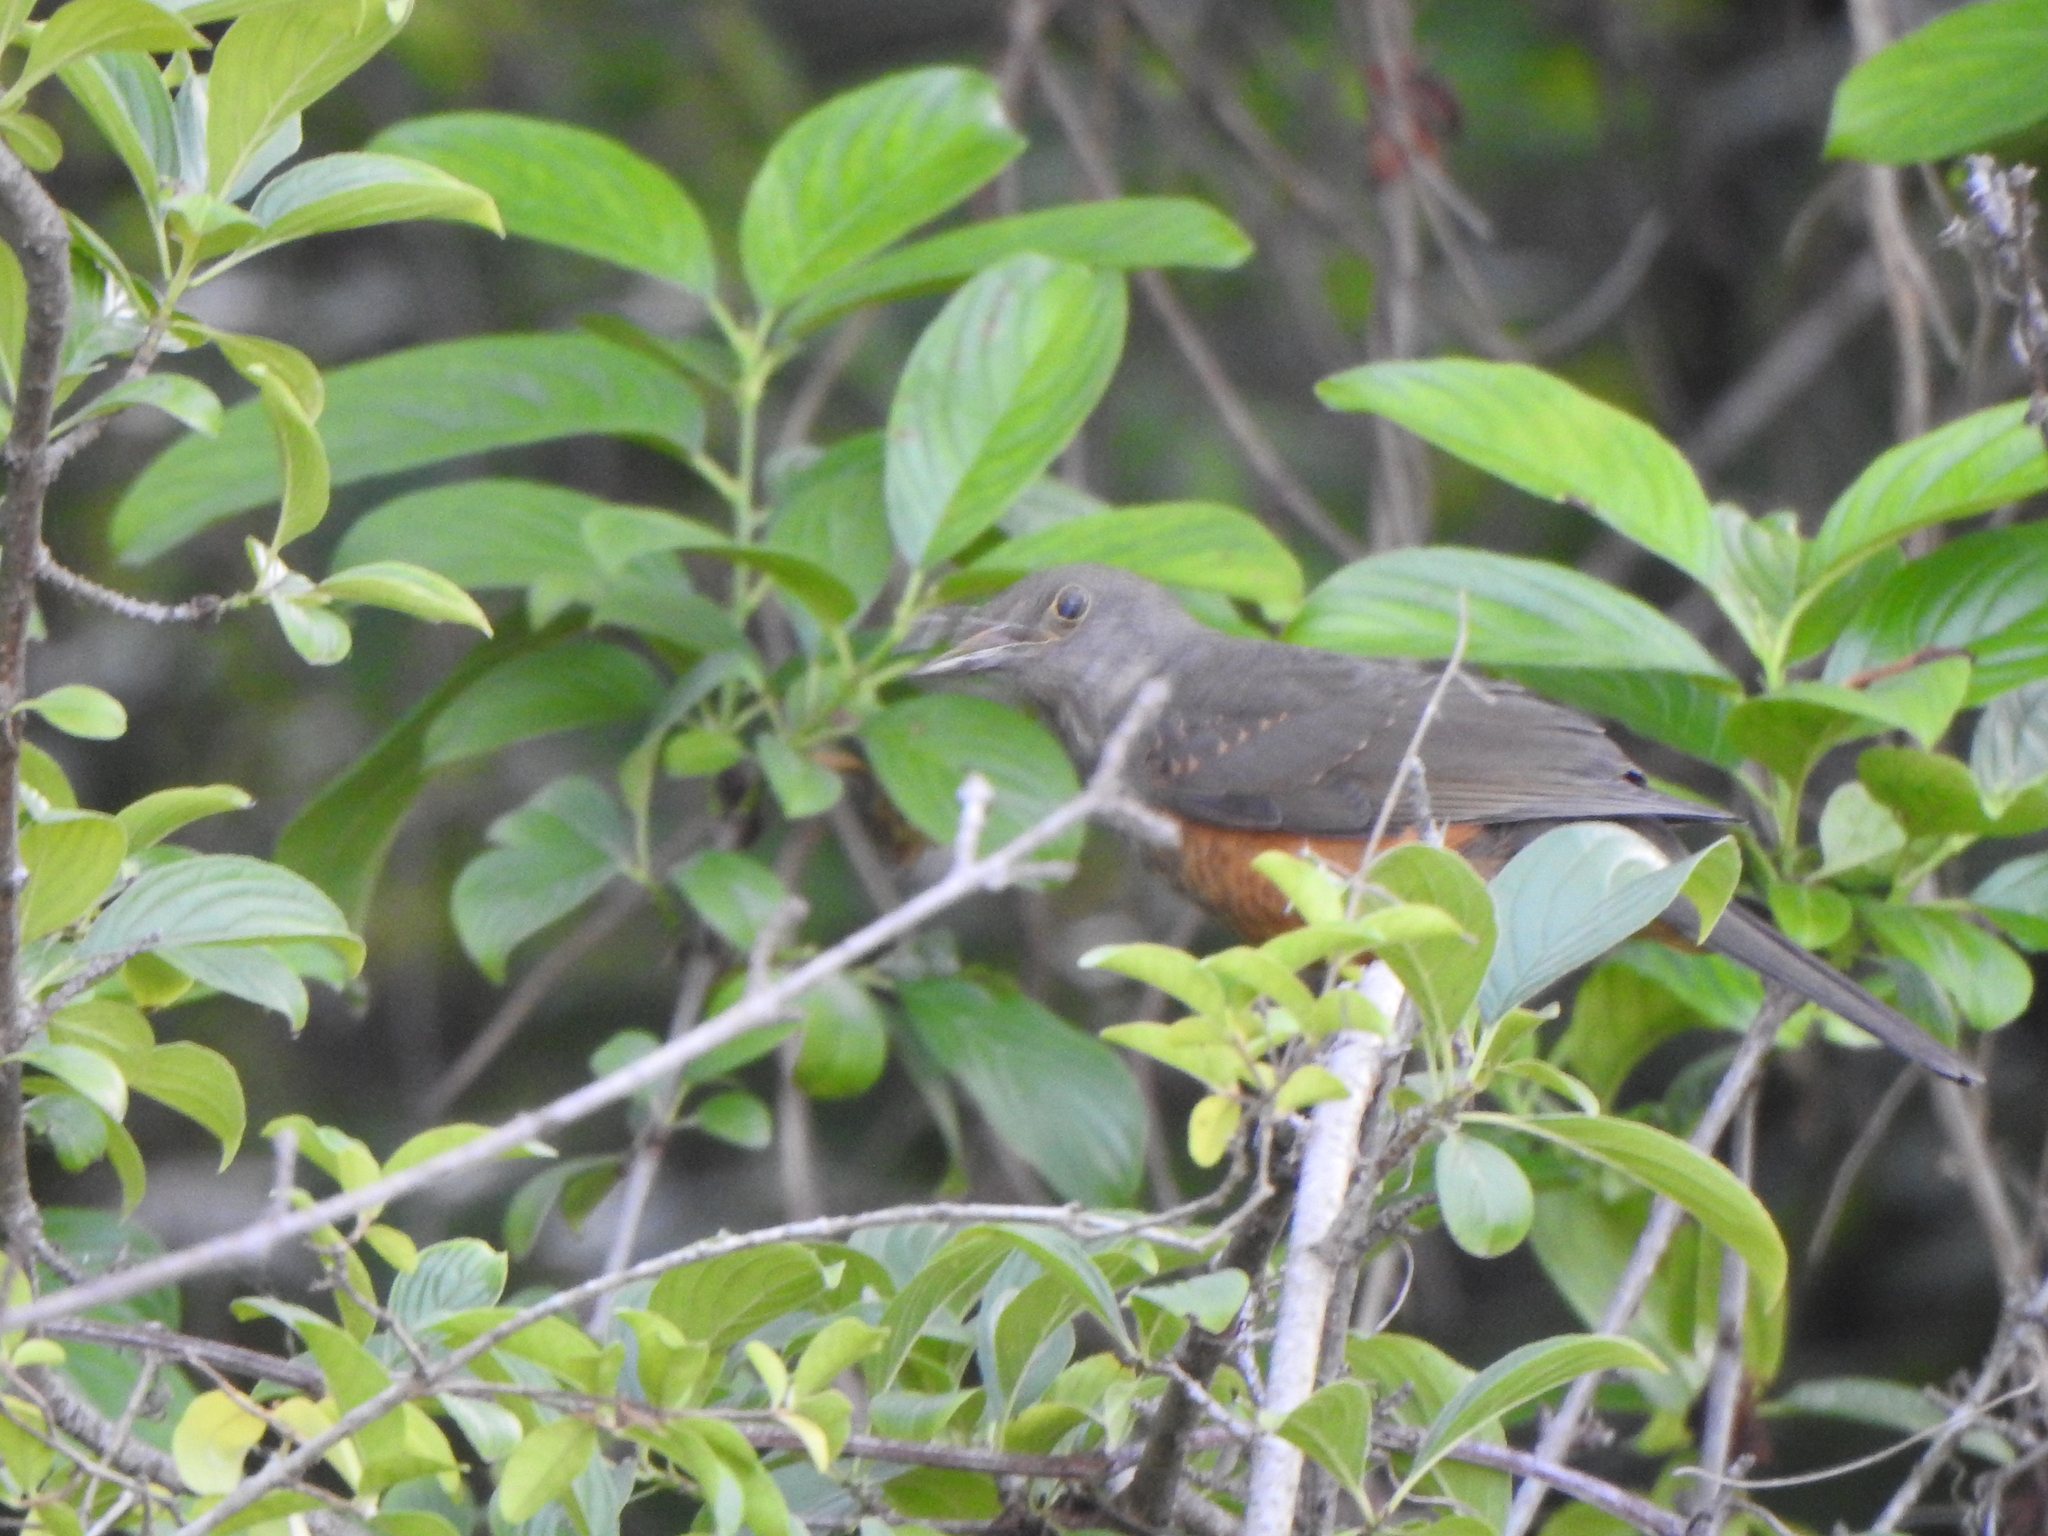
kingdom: Animalia
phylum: Chordata
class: Aves
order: Passeriformes
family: Turdidae
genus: Turdus
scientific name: Turdus rufiventris
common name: Rufous-bellied thrush
